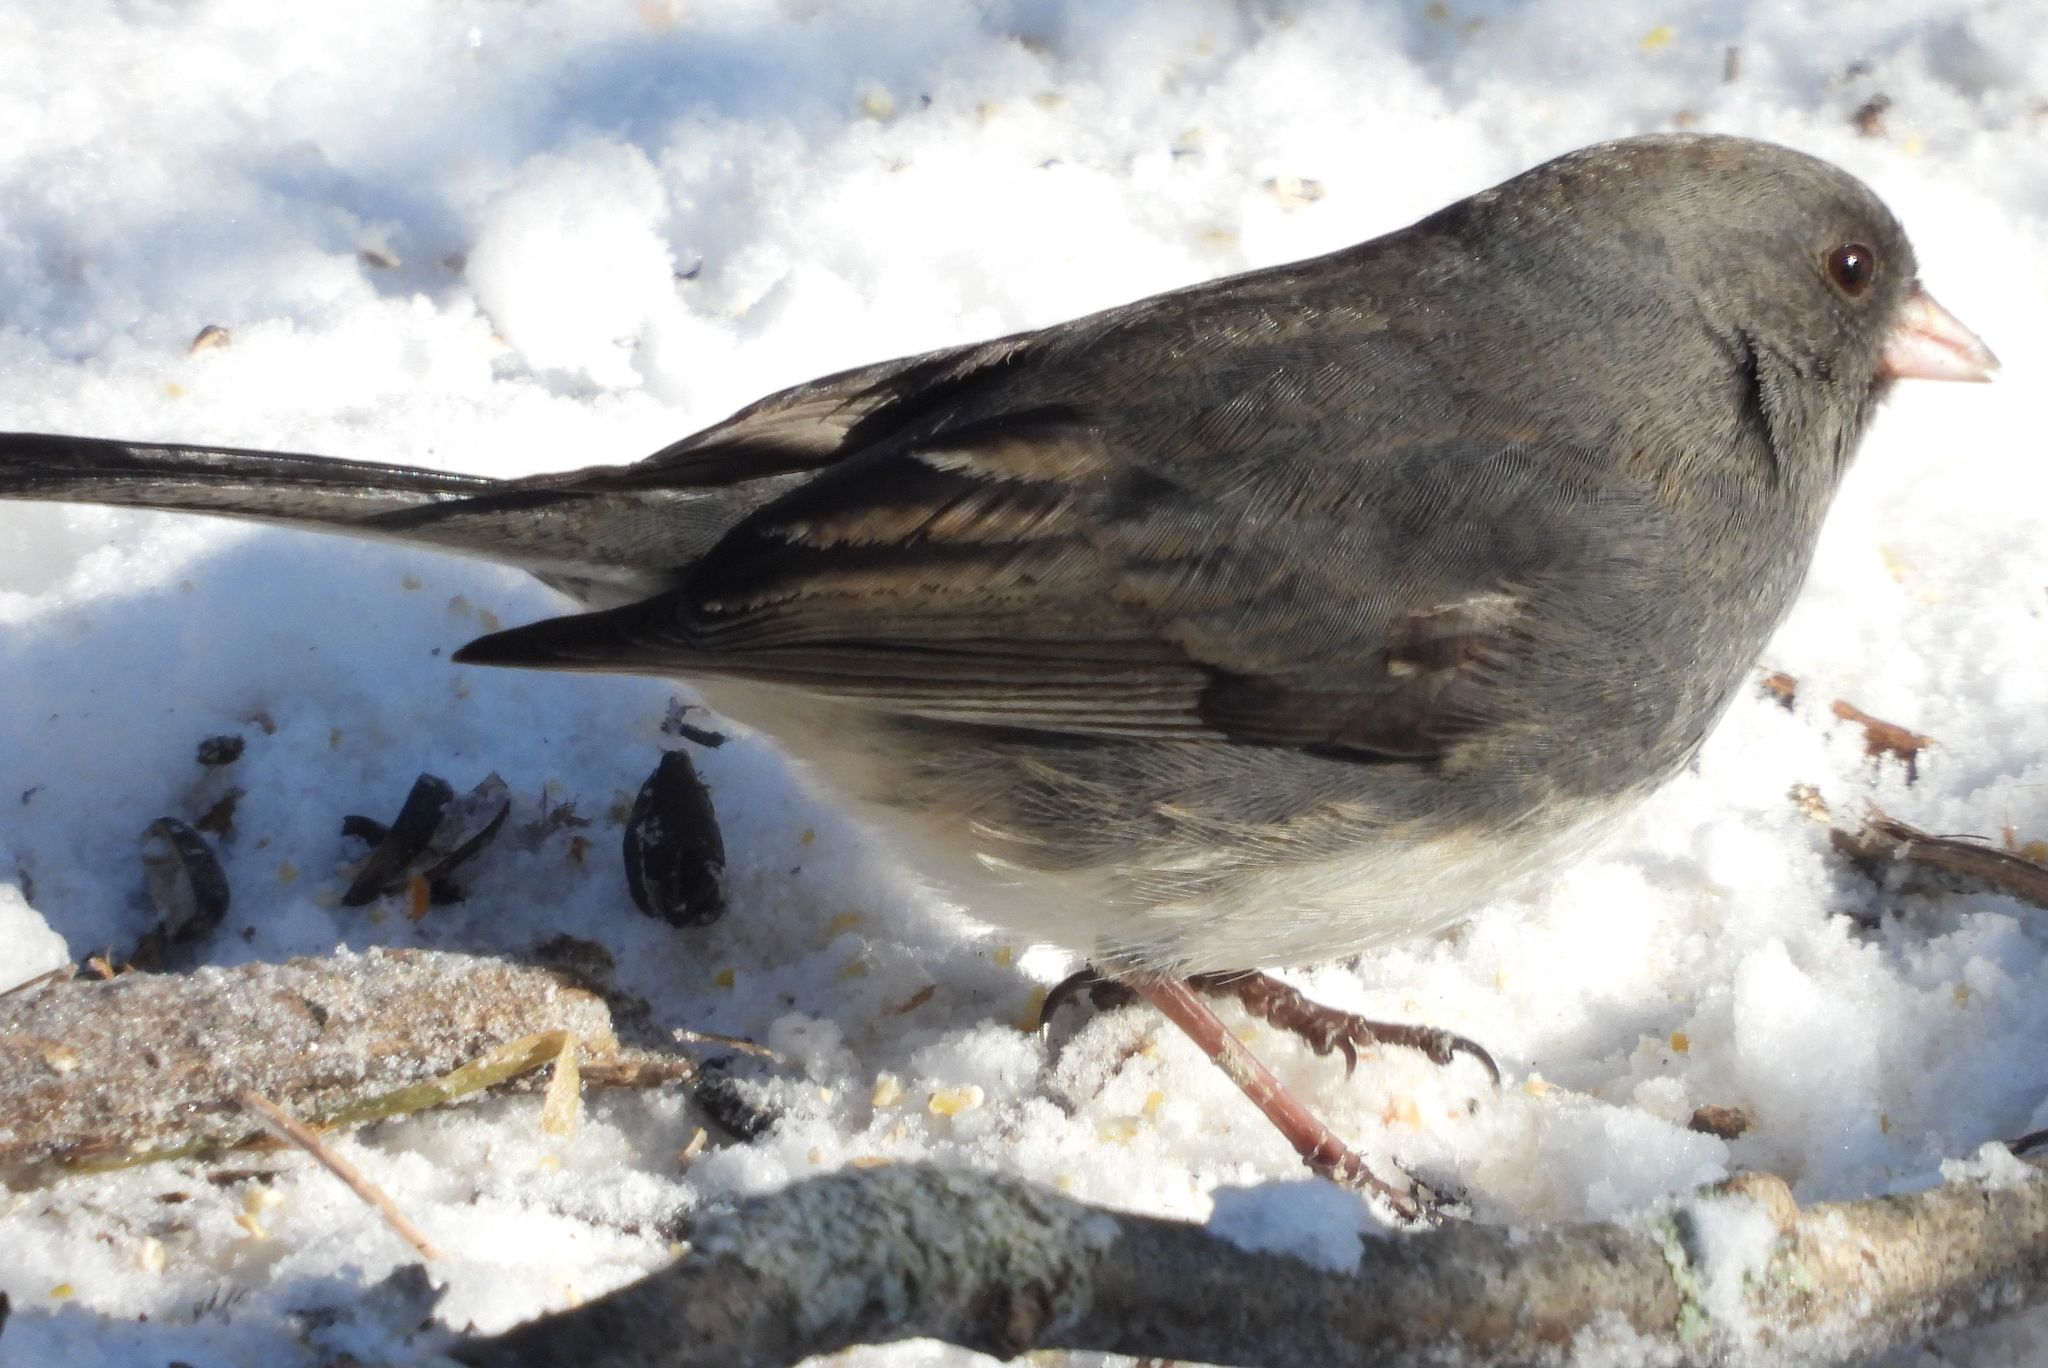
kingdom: Animalia
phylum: Chordata
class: Aves
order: Passeriformes
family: Passerellidae
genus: Junco
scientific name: Junco hyemalis
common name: Dark-eyed junco
